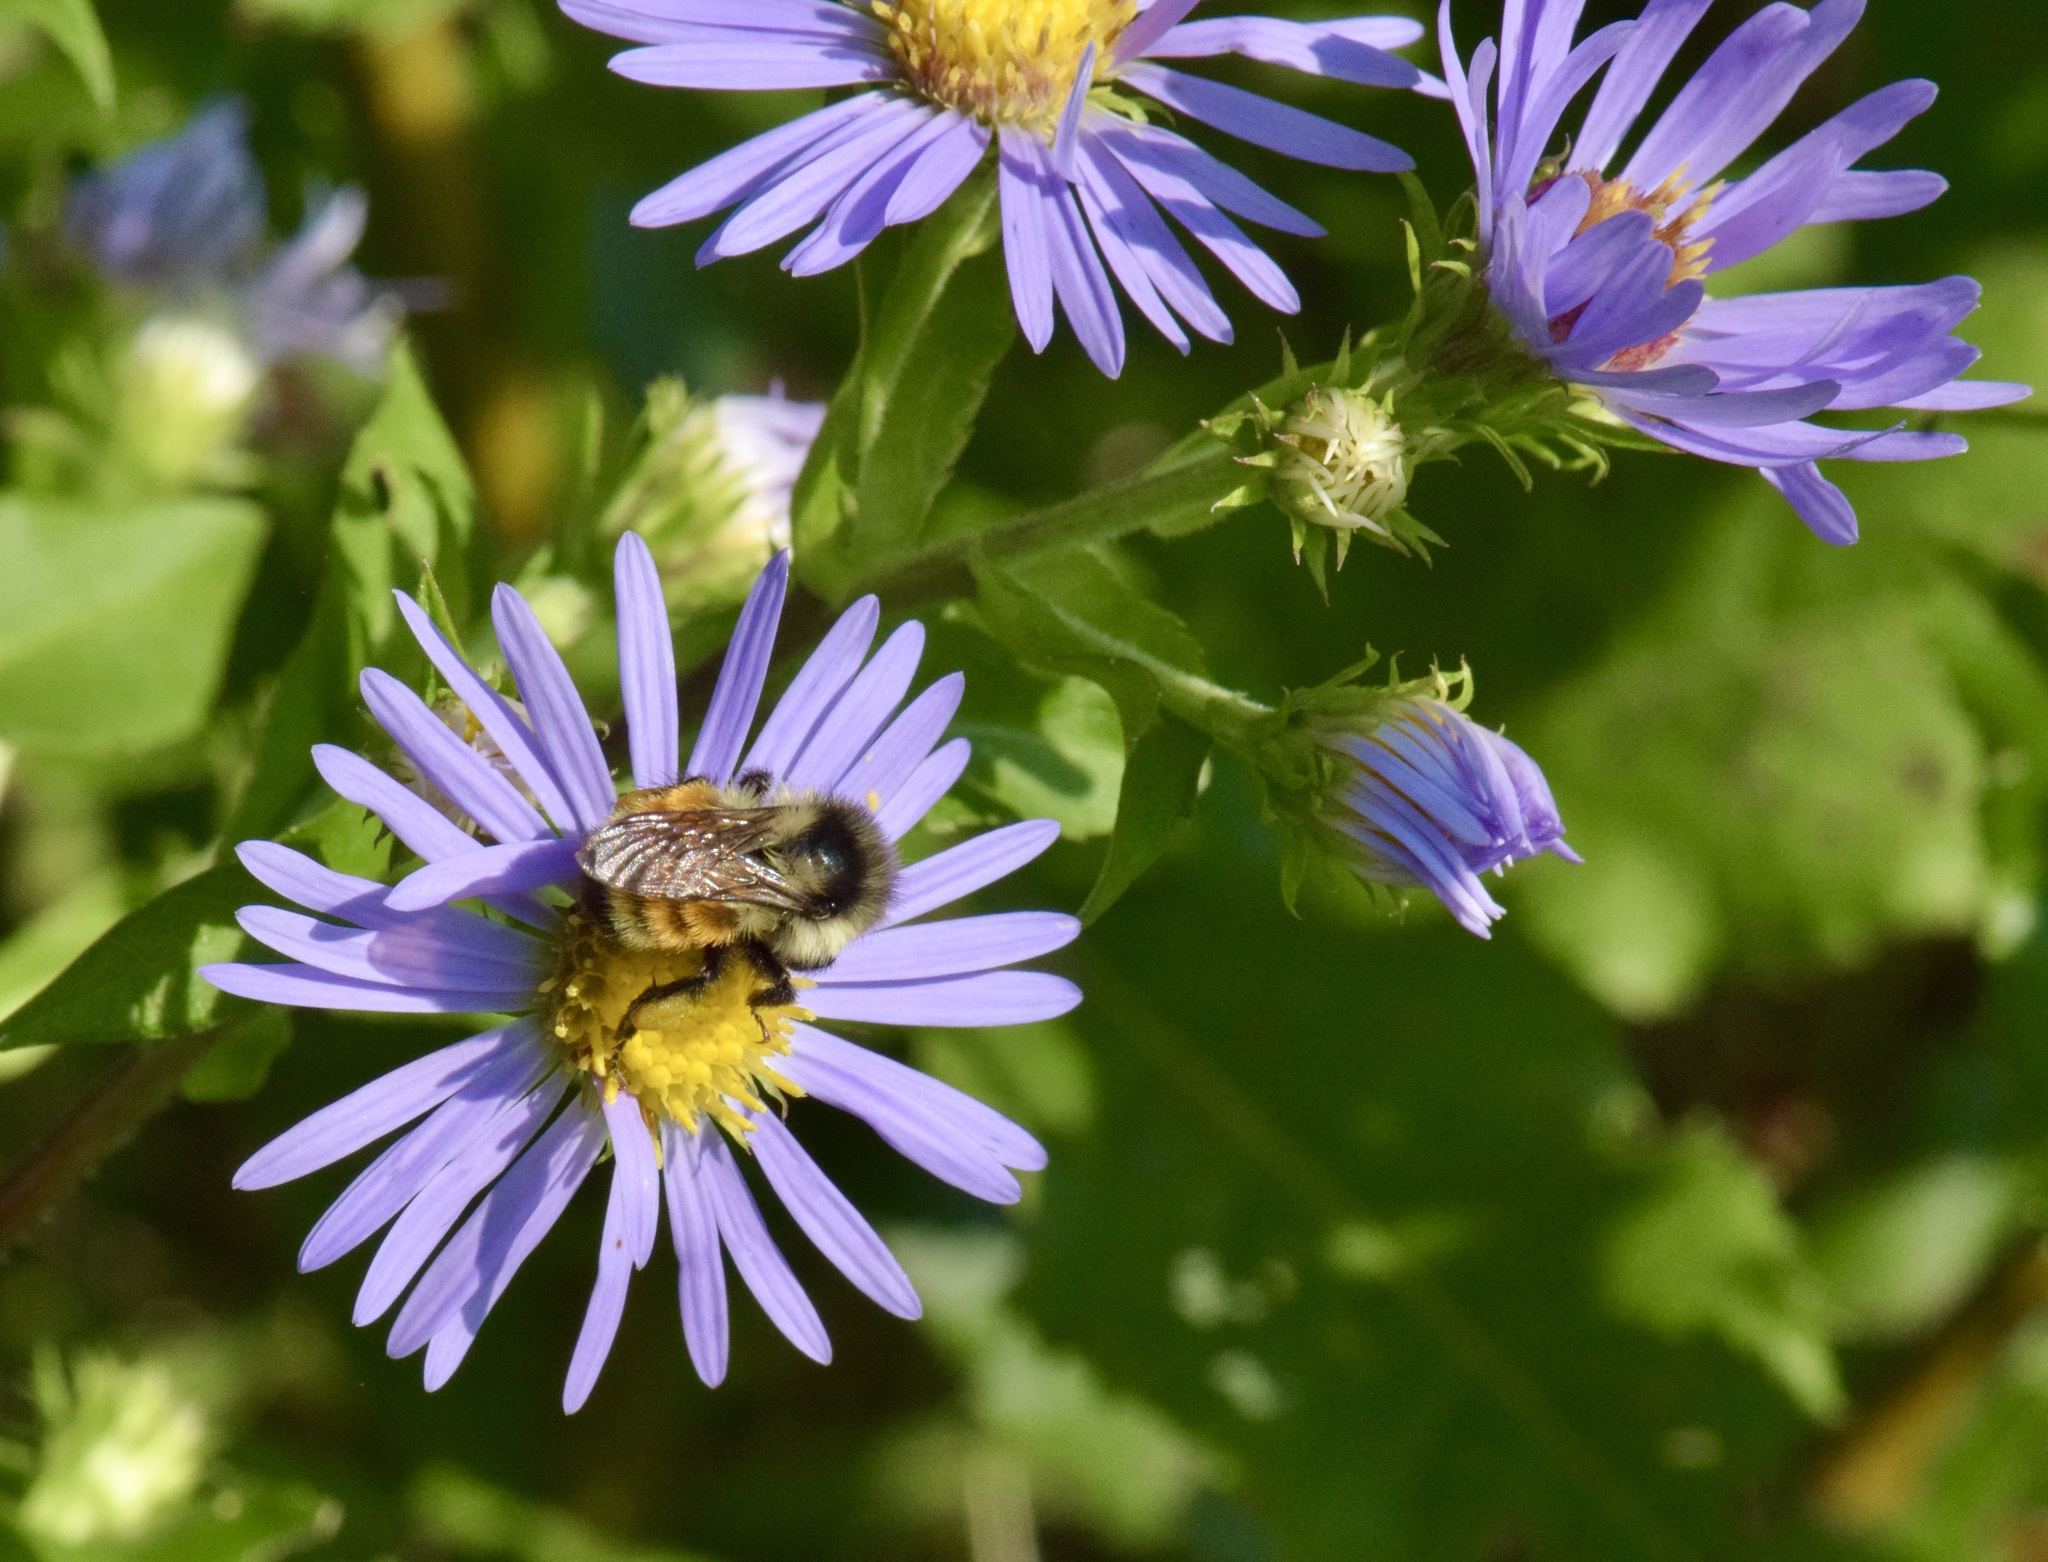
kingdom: Animalia
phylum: Arthropoda
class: Insecta
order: Hymenoptera
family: Apidae
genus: Bombus
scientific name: Bombus ternarius
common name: Tri-colored bumble bee
